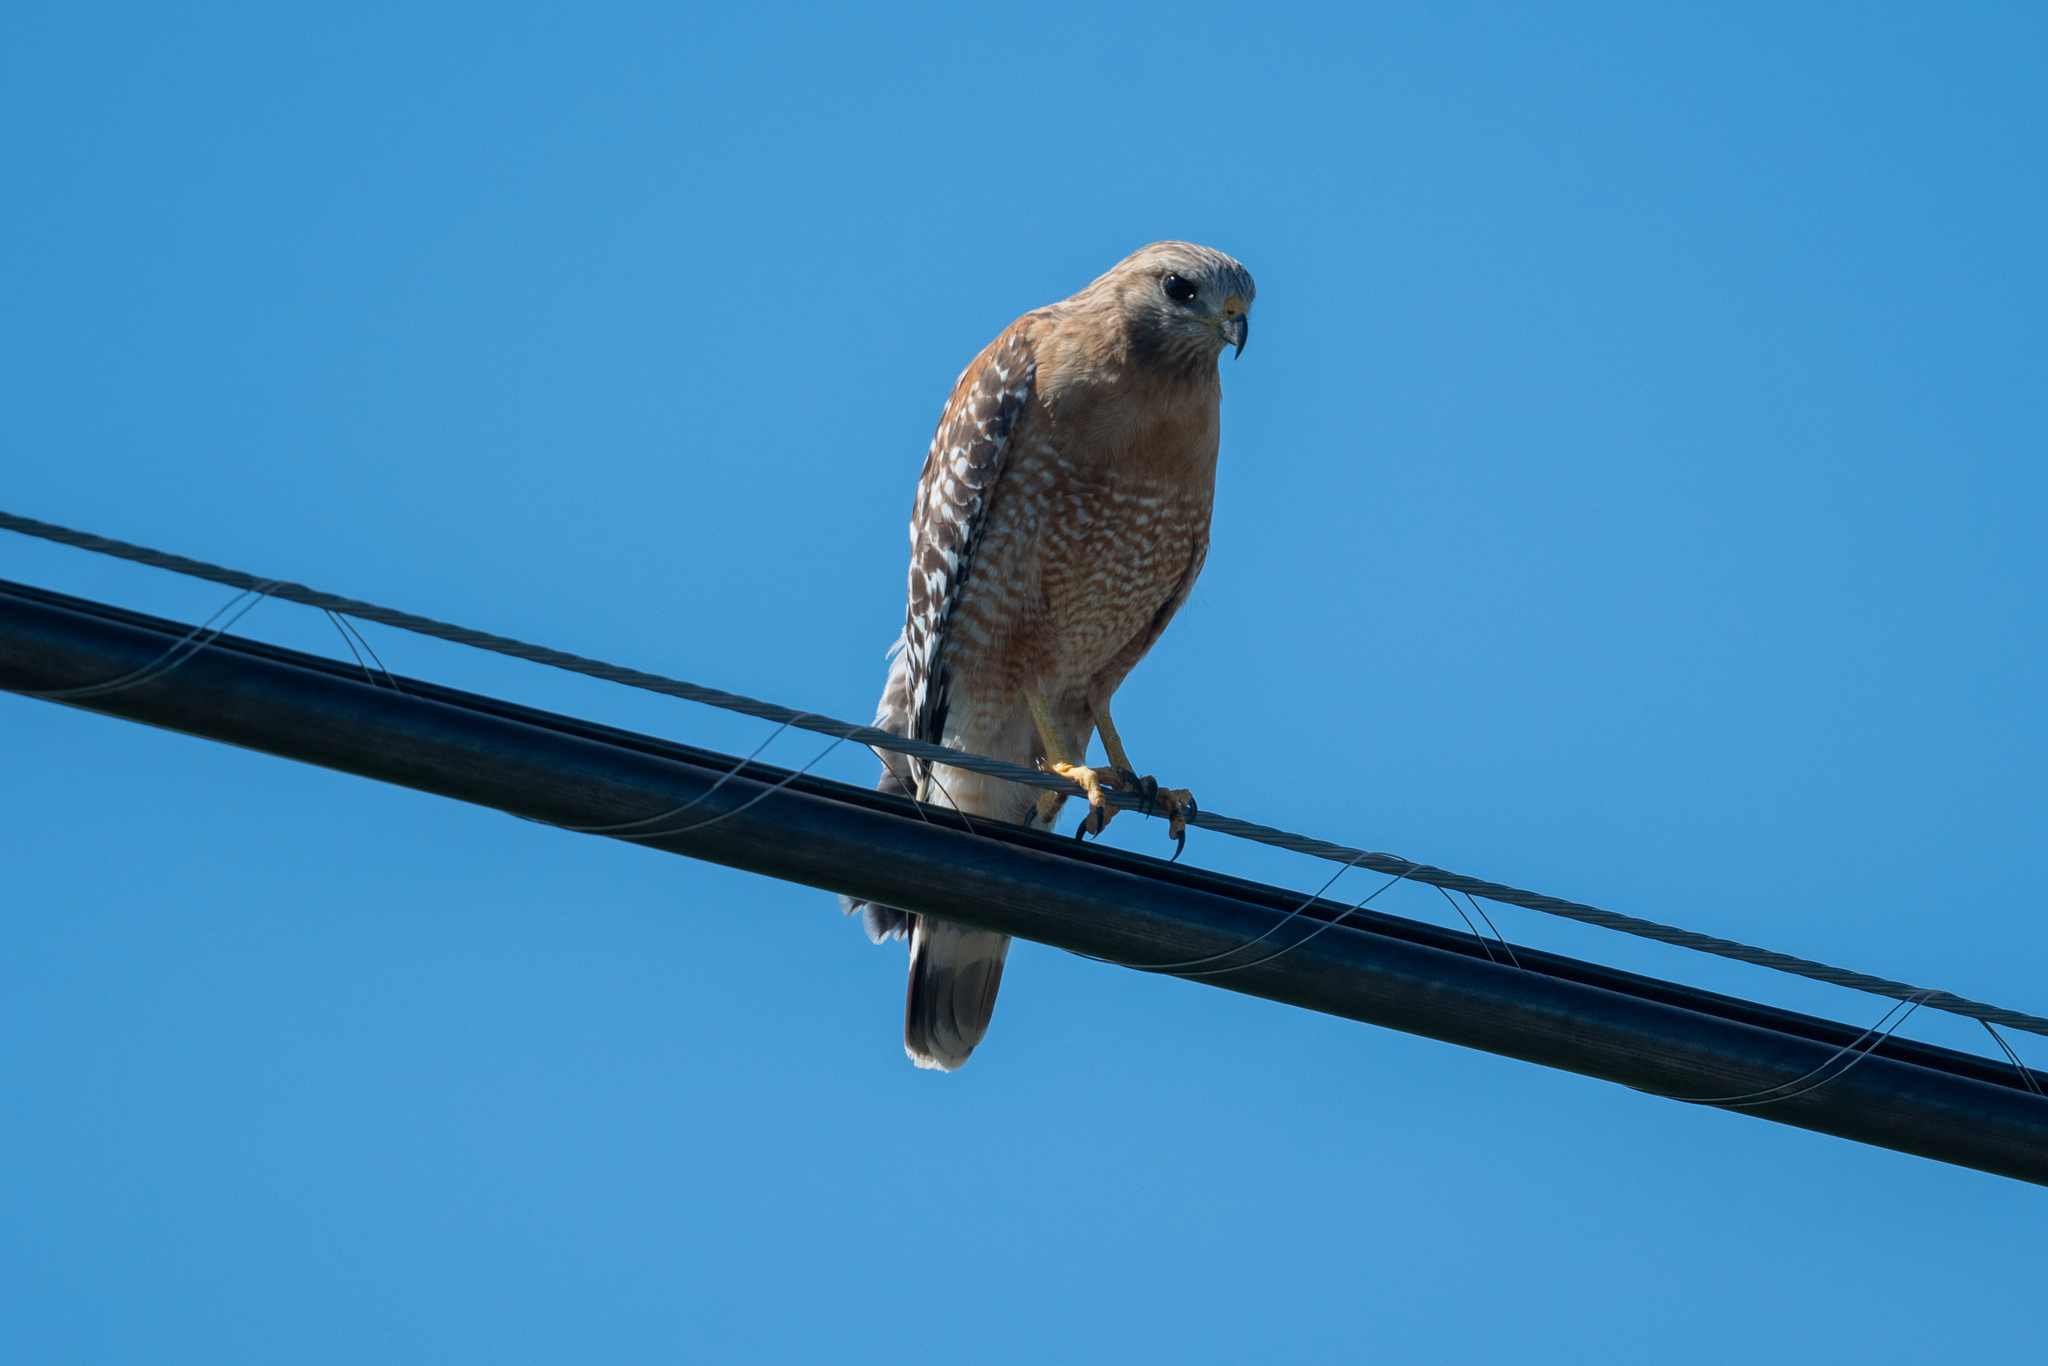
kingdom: Animalia
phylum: Chordata
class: Aves
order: Accipitriformes
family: Accipitridae
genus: Buteo
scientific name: Buteo lineatus
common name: Red-shouldered hawk
